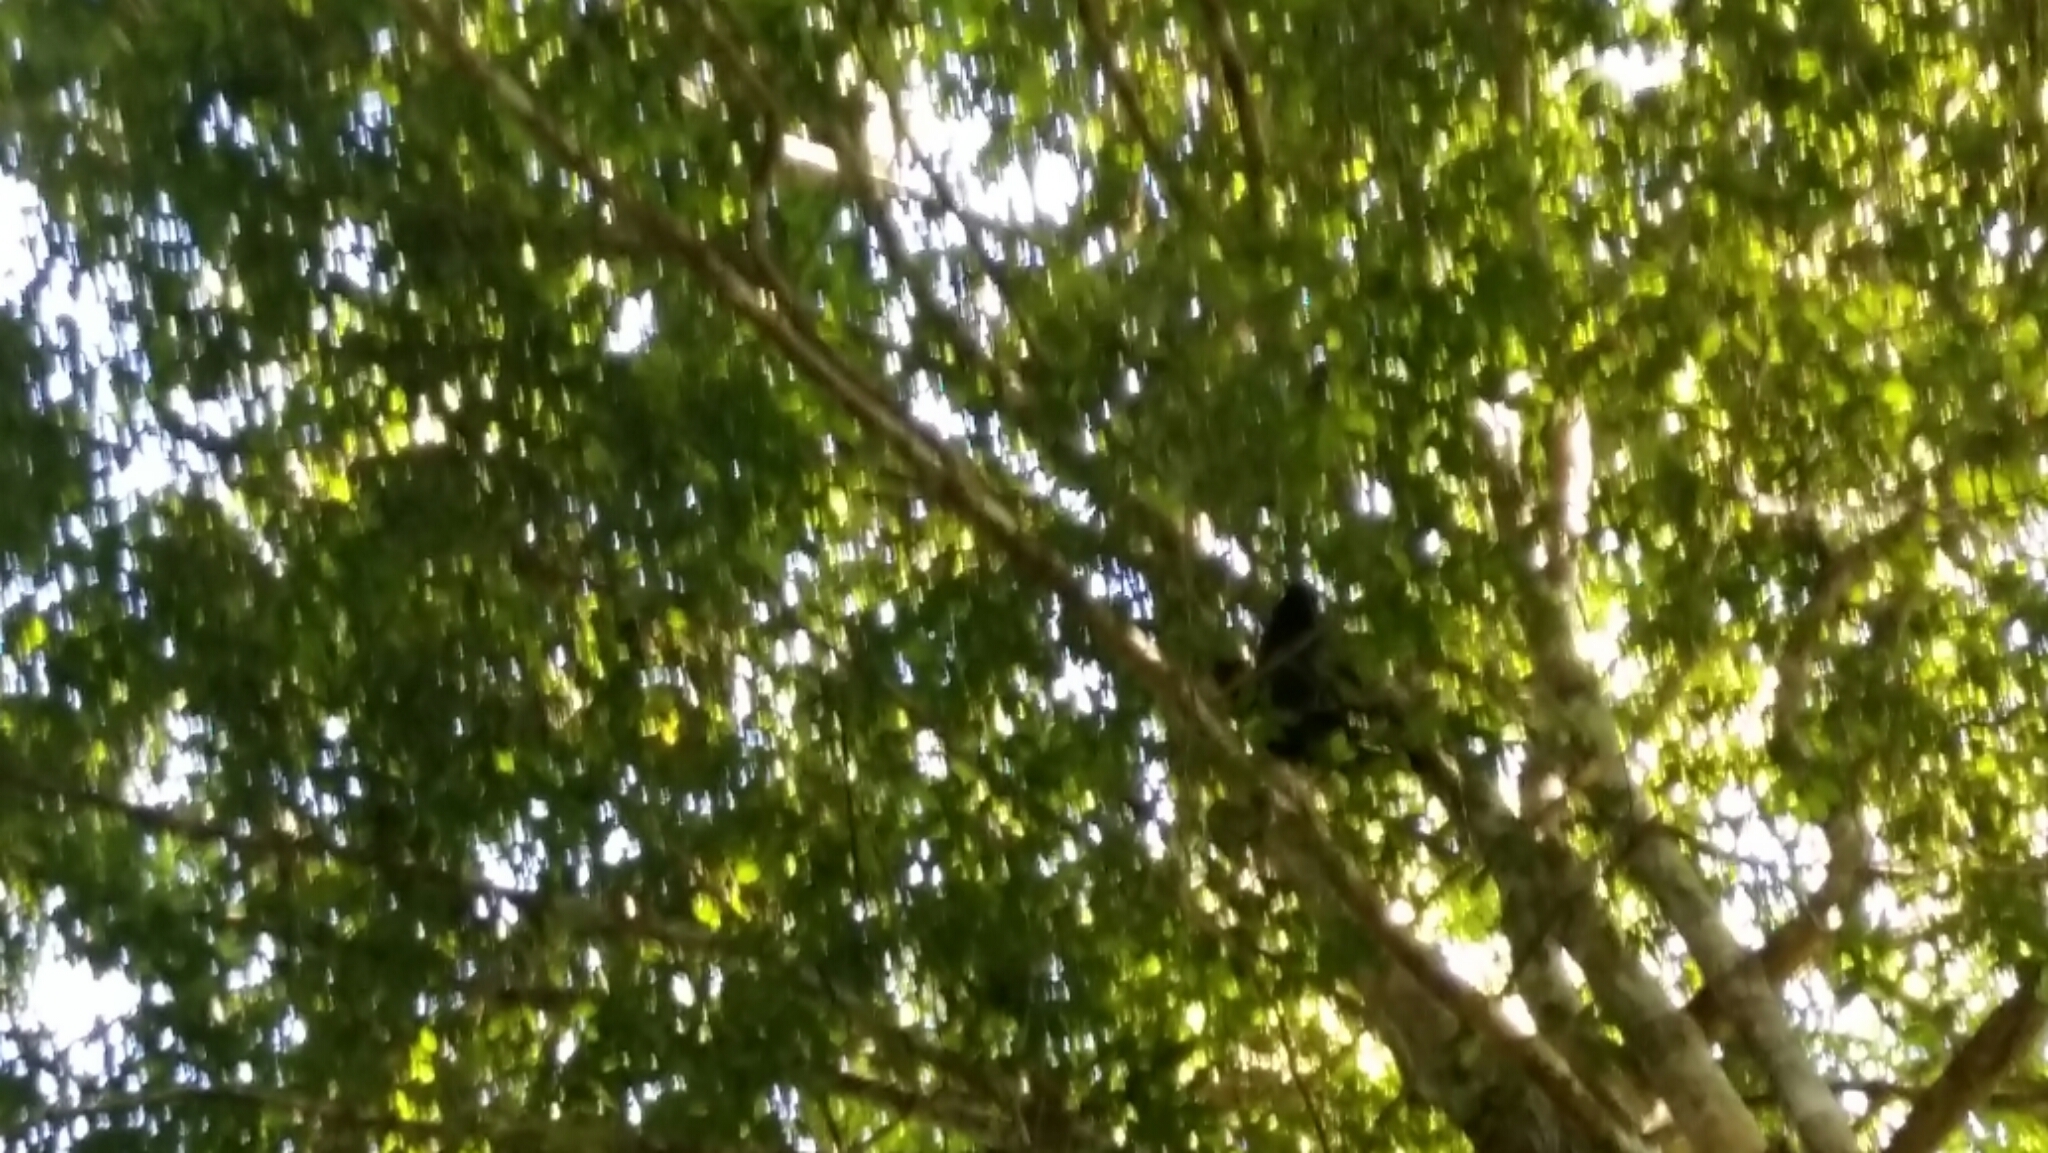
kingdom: Animalia
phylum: Chordata
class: Mammalia
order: Primates
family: Atelidae
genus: Alouatta
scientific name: Alouatta nigerrima
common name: Amazon black howler
